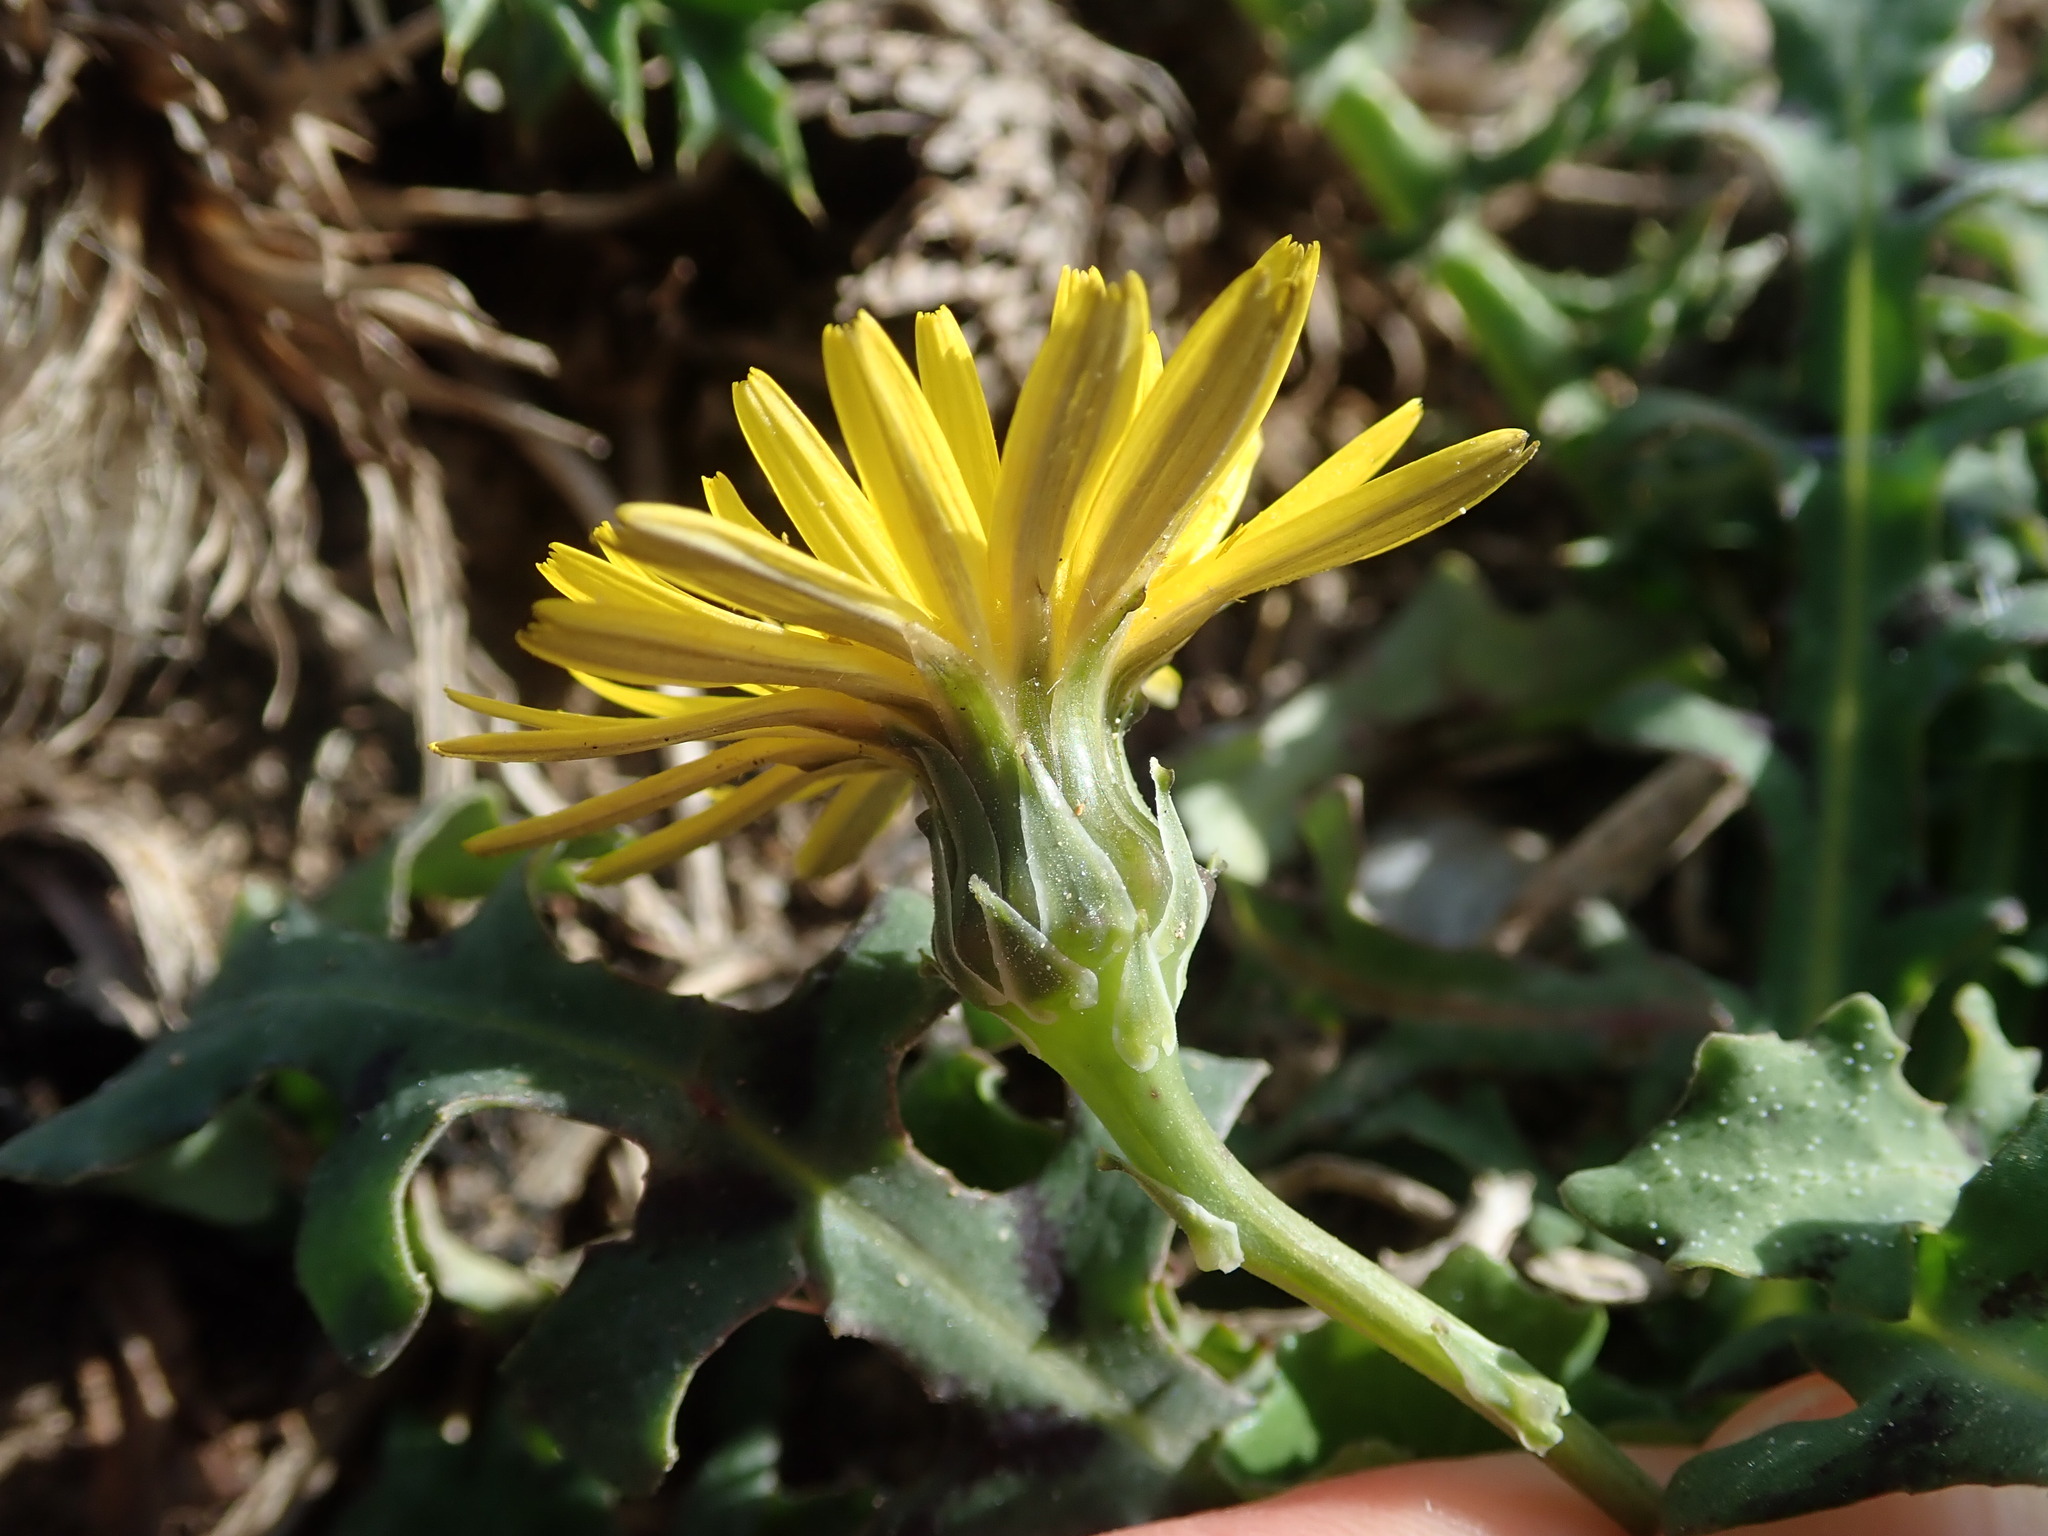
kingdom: Plantae
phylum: Tracheophyta
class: Magnoliopsida
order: Asterales
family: Asteraceae
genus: Reichardia
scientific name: Reichardia picroides
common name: Common brighteyes
